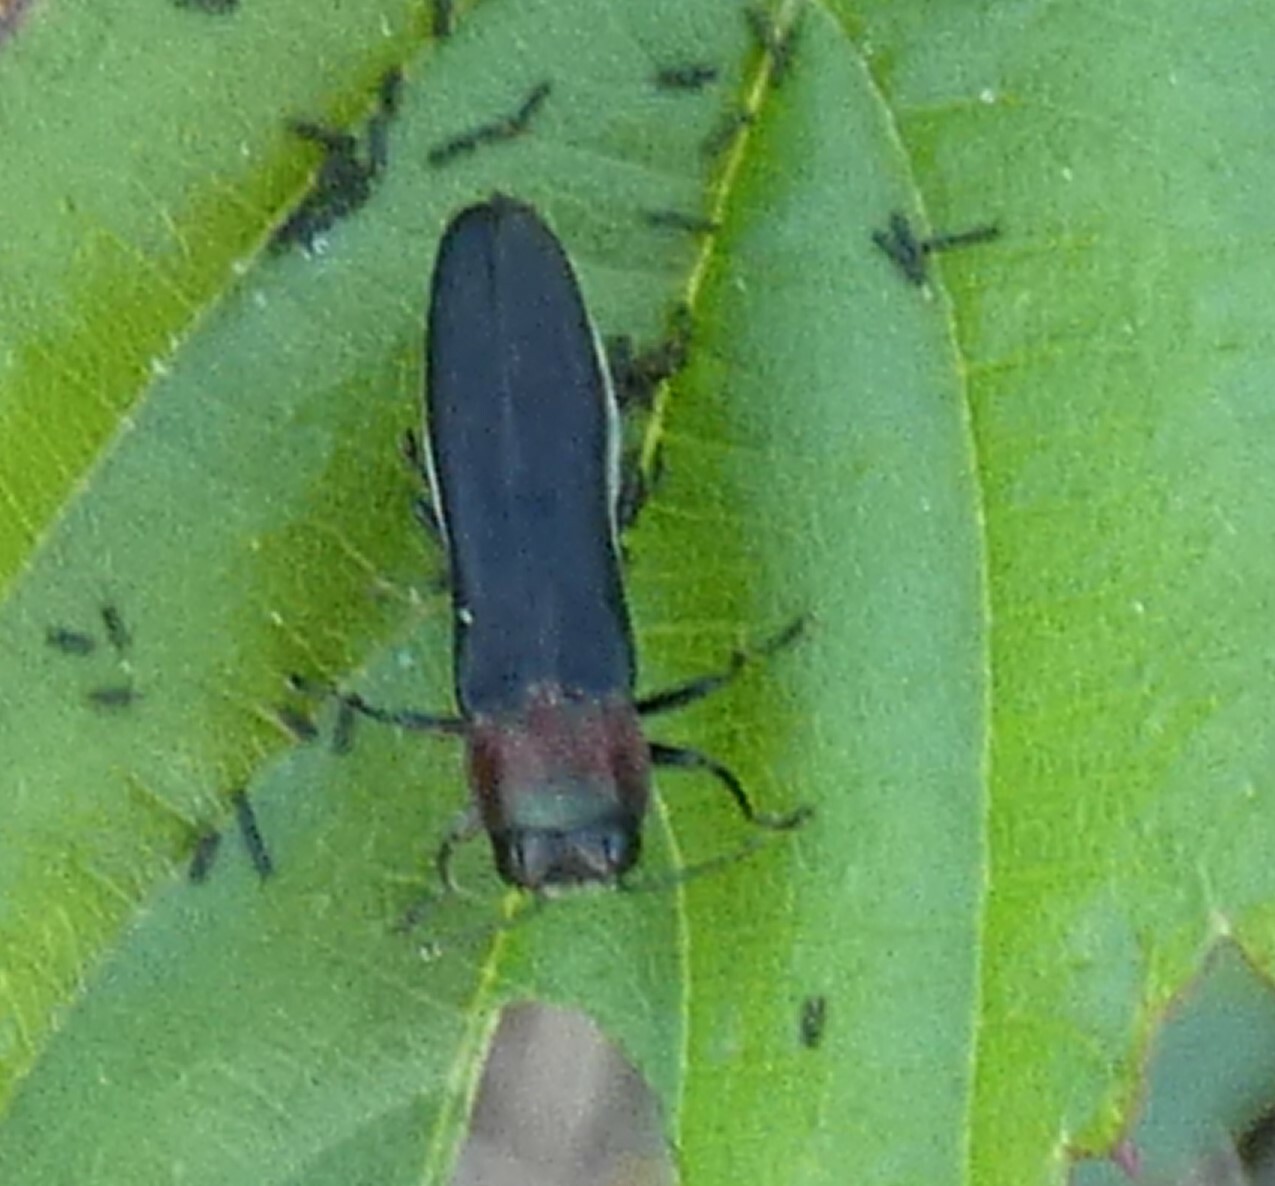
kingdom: Animalia
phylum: Arthropoda
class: Insecta
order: Coleoptera
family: Buprestidae
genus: Agrilus
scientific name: Agrilus ruficollis
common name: Red-necked cane borer beetle
